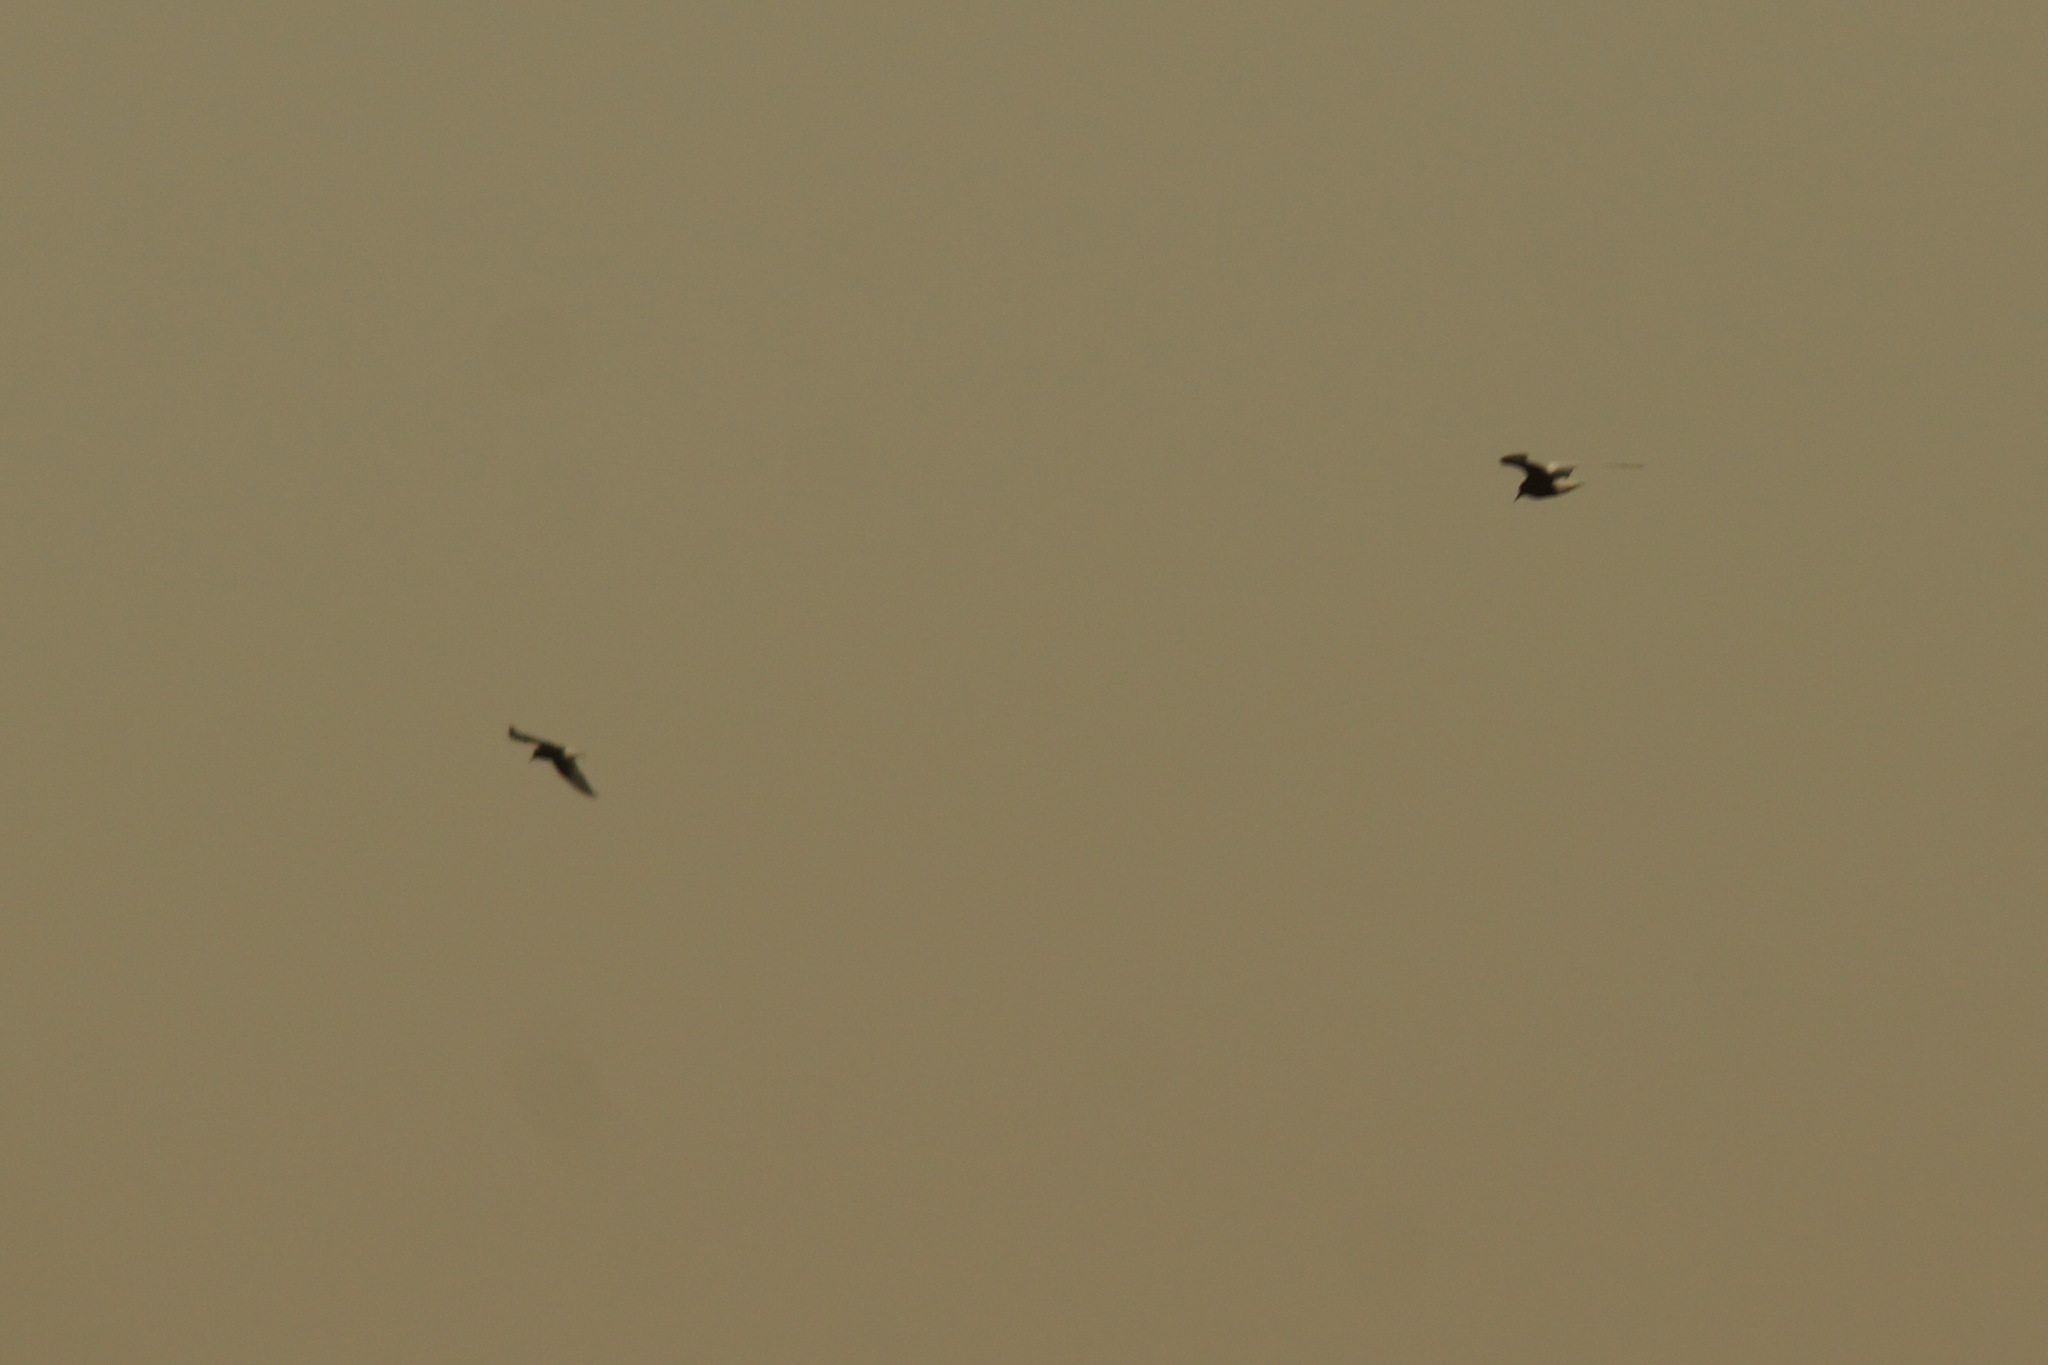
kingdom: Animalia
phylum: Chordata
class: Aves
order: Charadriiformes
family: Laridae
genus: Chlidonias
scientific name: Chlidonias leucopterus
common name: White-winged tern
